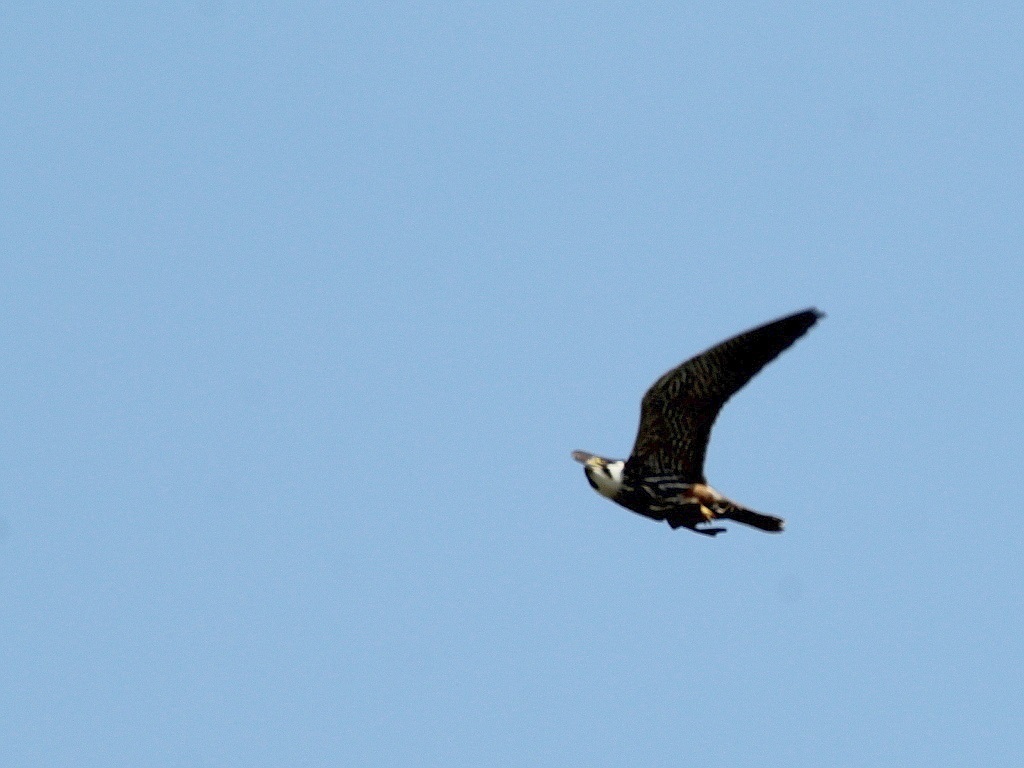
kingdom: Animalia
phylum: Chordata
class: Aves
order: Falconiformes
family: Falconidae
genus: Falco
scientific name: Falco subbuteo
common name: Eurasian hobby
